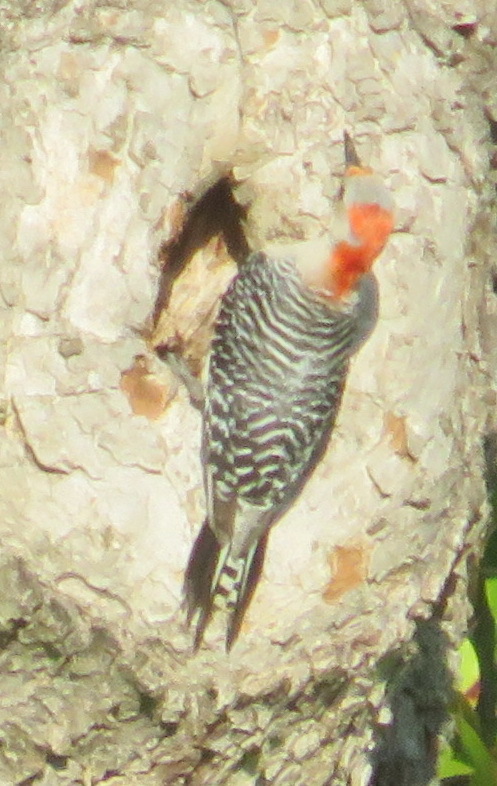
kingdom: Animalia
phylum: Chordata
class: Aves
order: Piciformes
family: Picidae
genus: Melanerpes
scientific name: Melanerpes carolinus
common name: Red-bellied woodpecker
